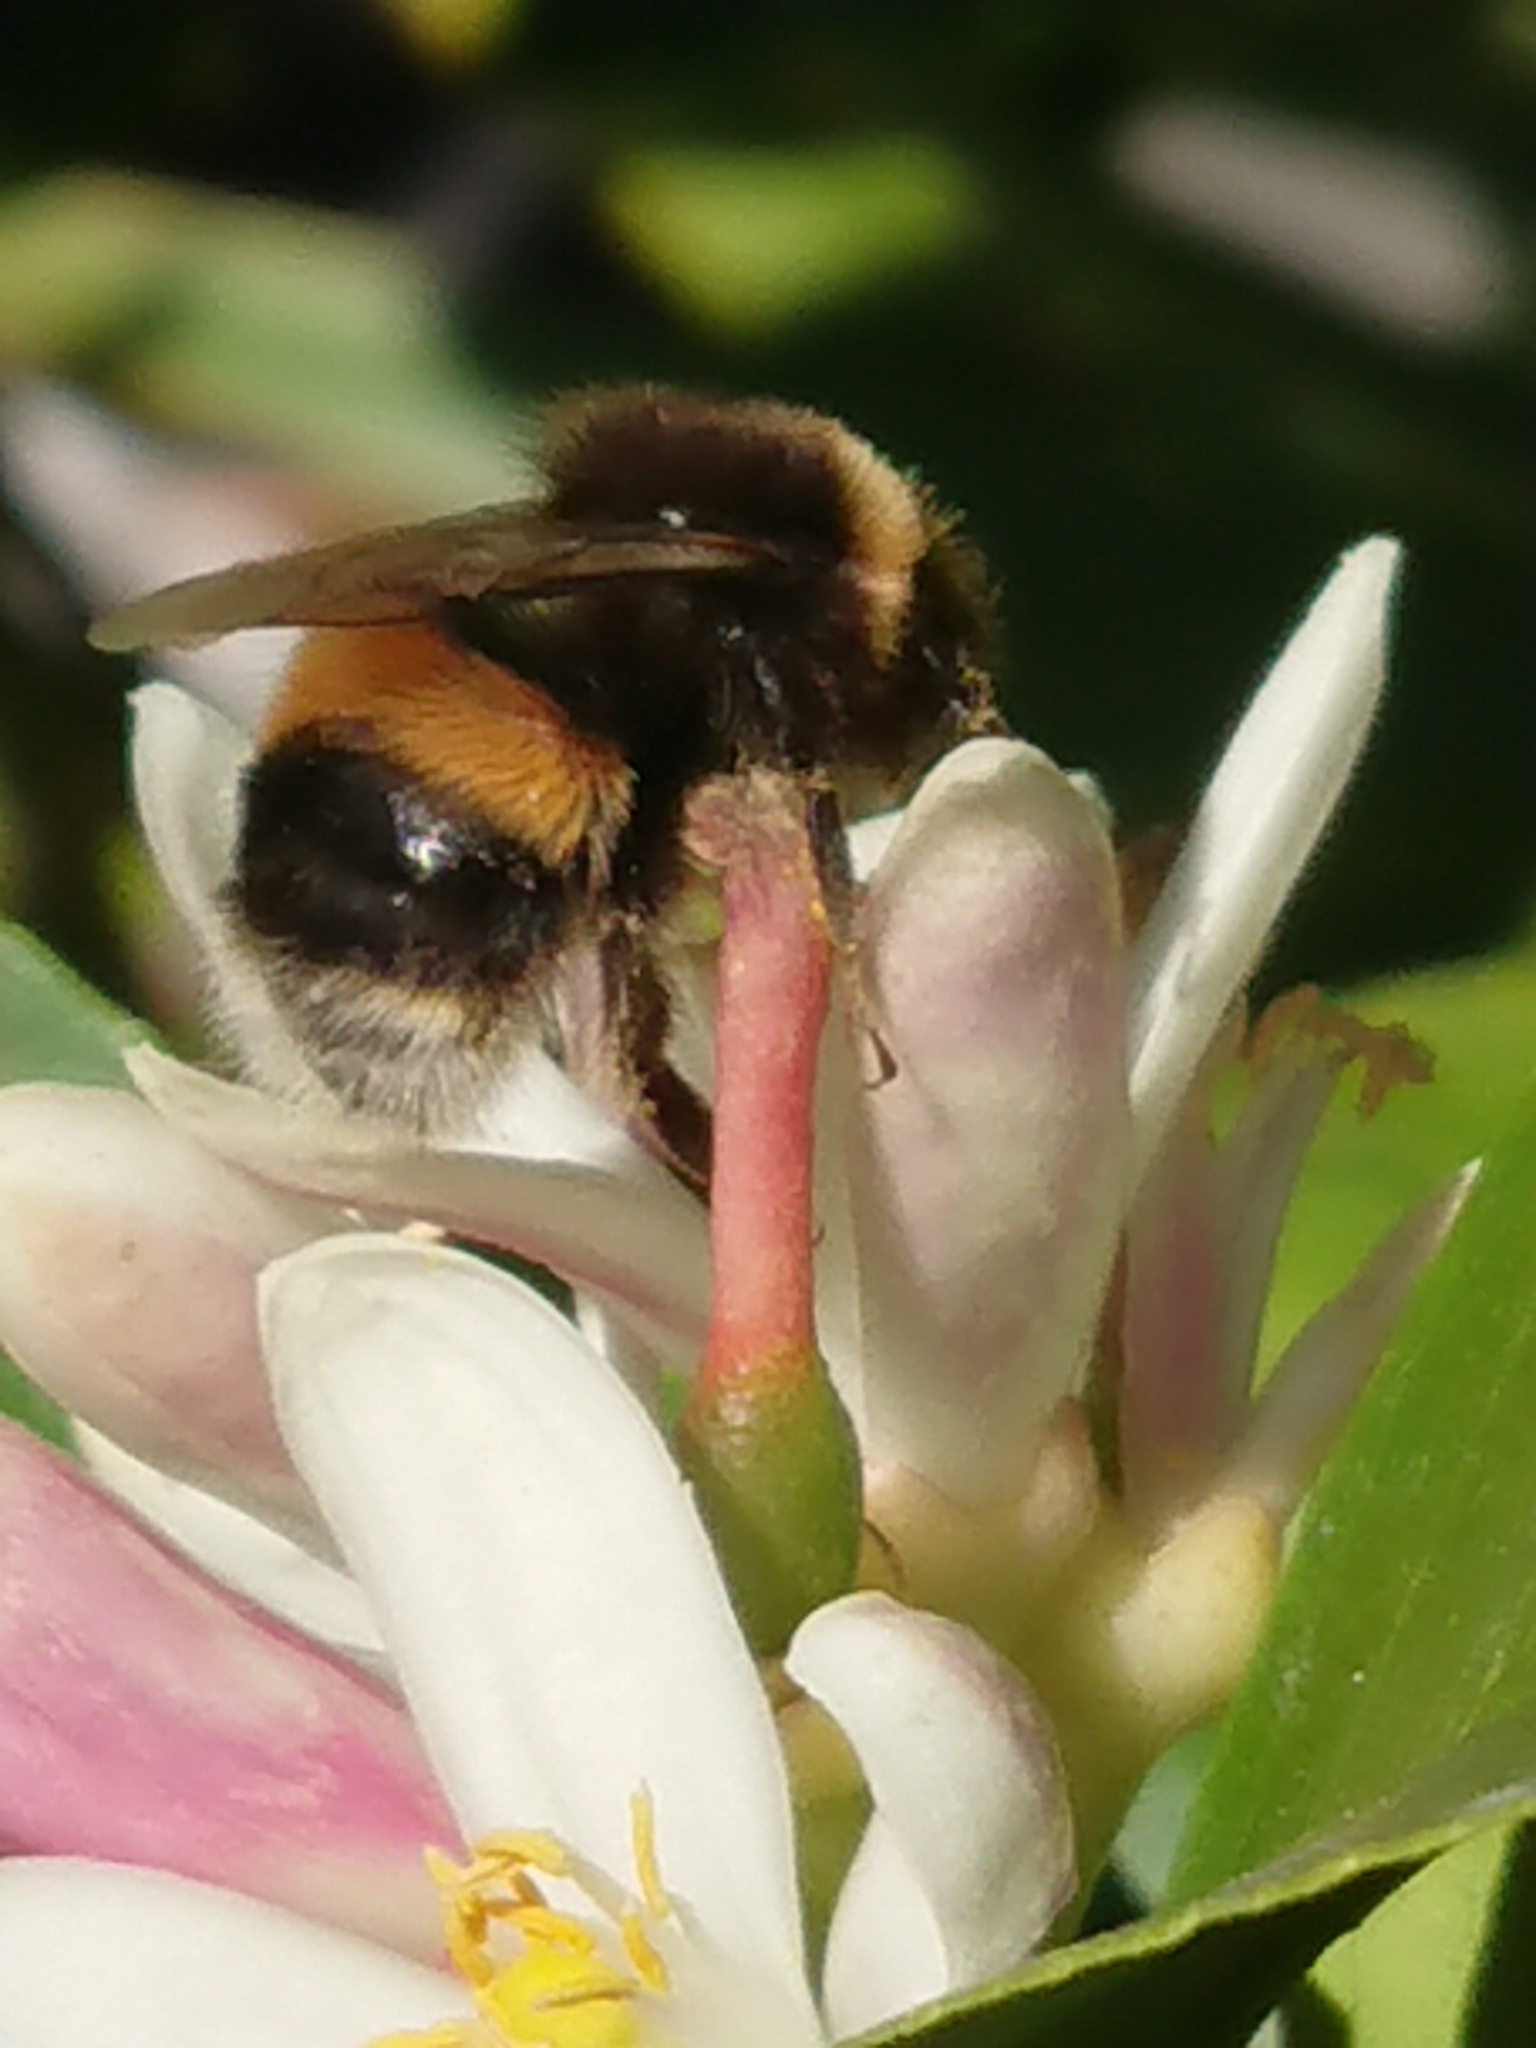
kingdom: Animalia
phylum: Arthropoda
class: Insecta
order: Hymenoptera
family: Apidae
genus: Bombus
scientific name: Bombus terrestris
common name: Buff-tailed bumblebee
